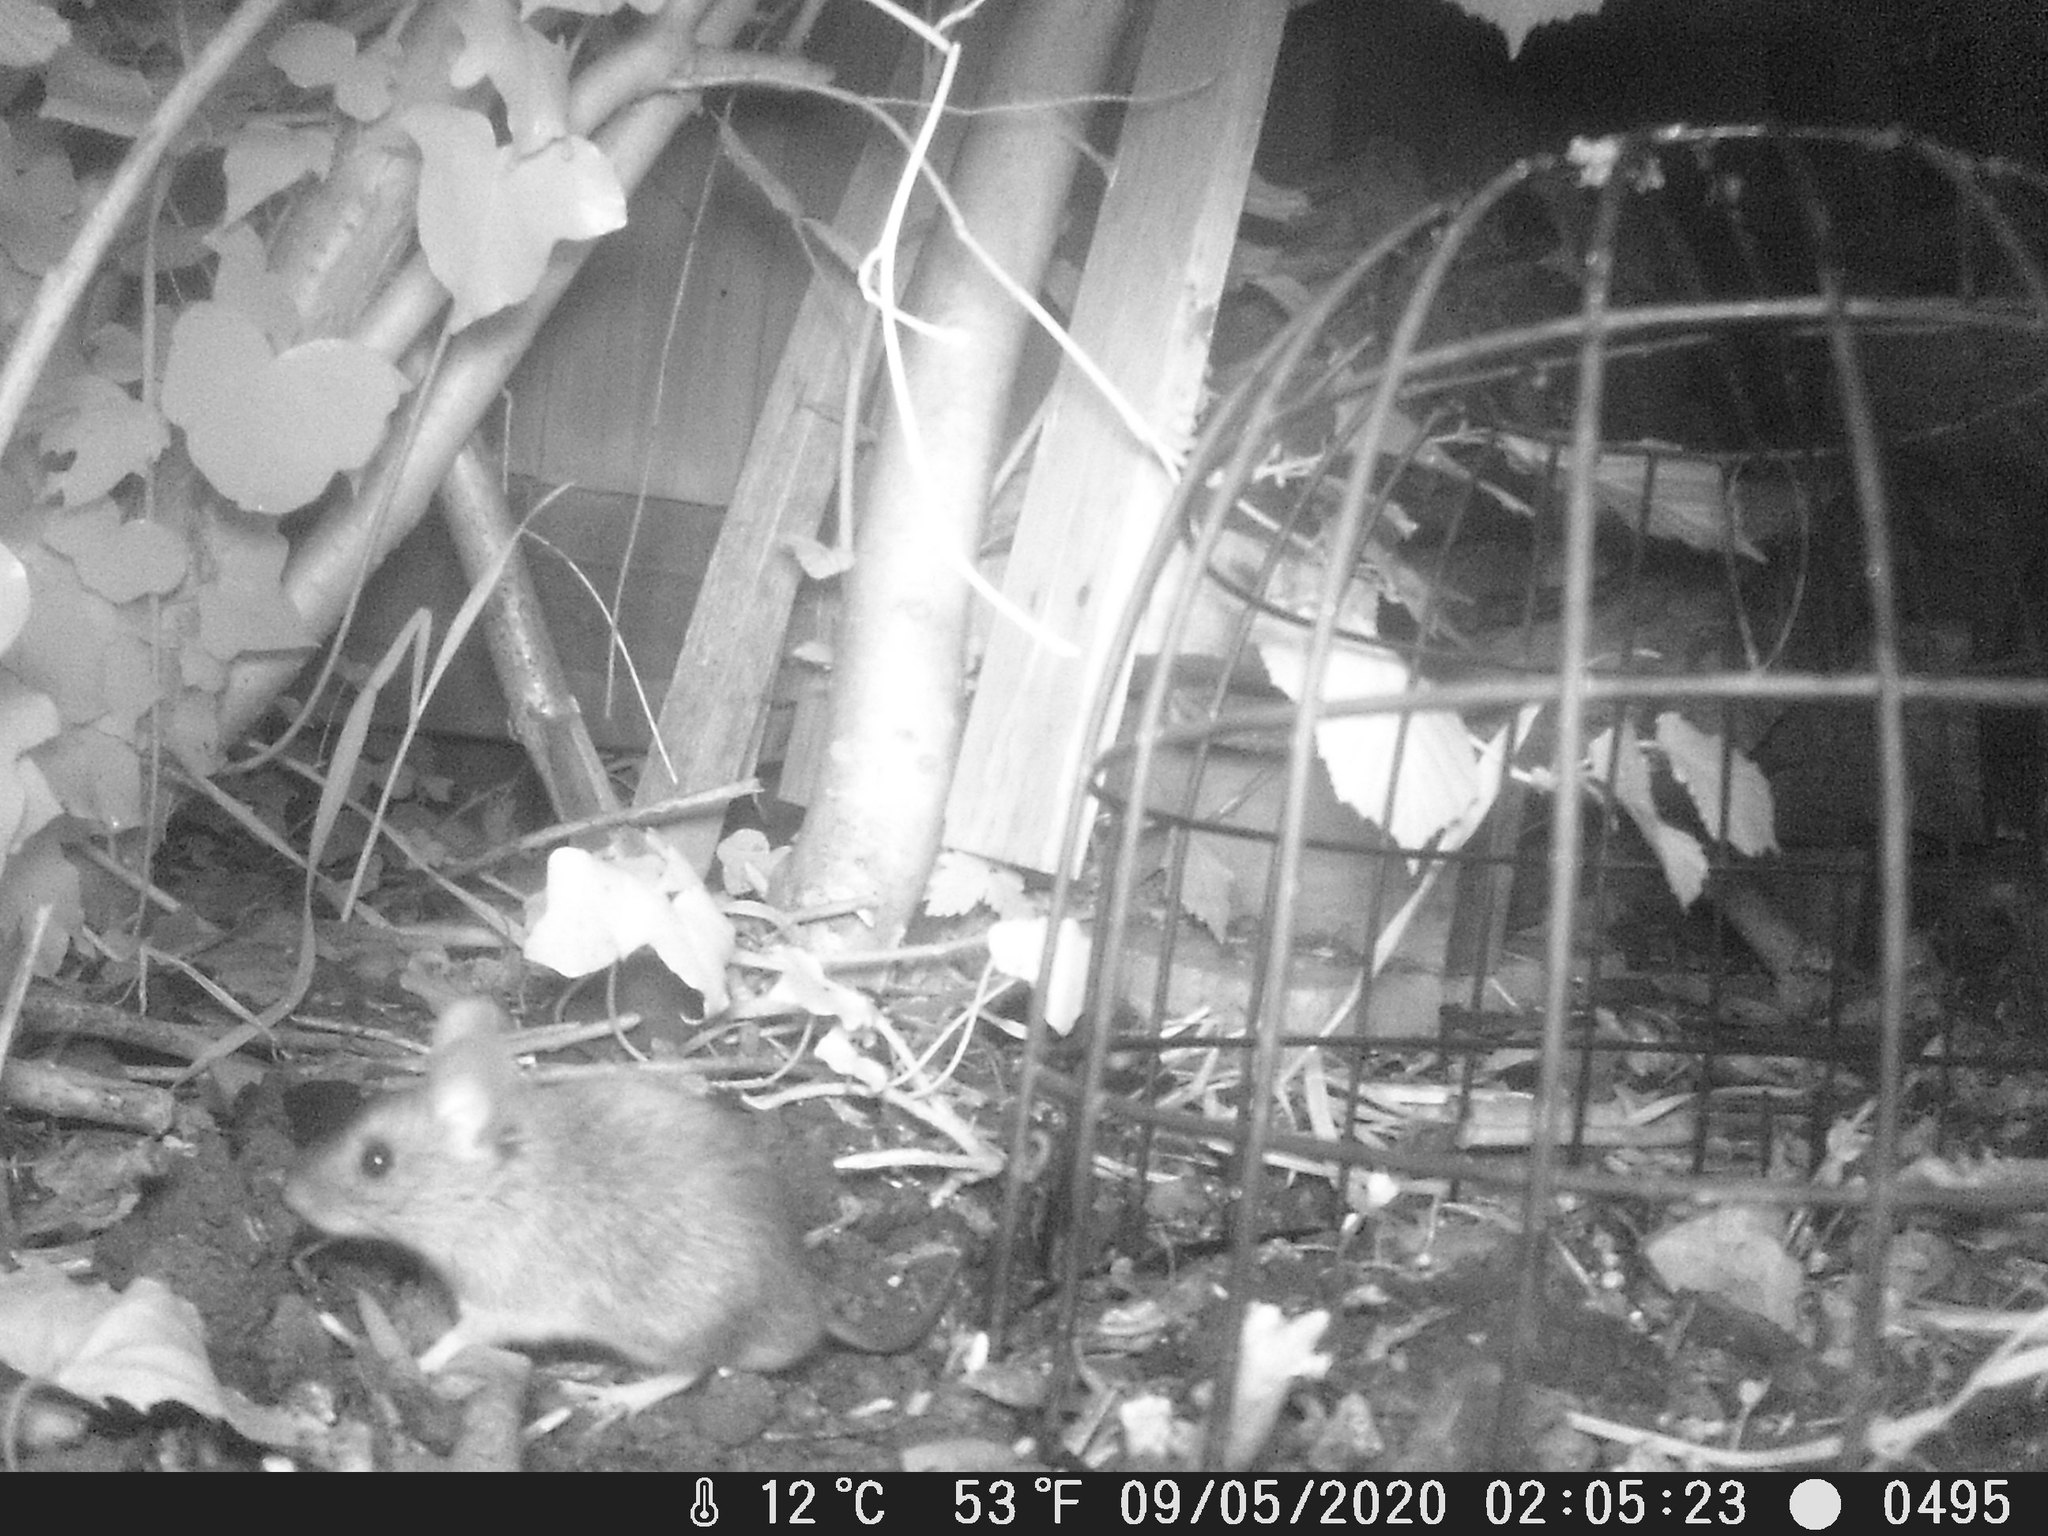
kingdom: Animalia
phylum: Chordata
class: Mammalia
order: Rodentia
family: Muridae
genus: Apodemus
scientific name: Apodemus sylvaticus
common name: Wood mouse
